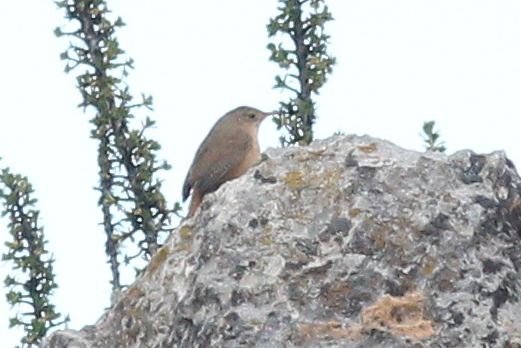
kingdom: Animalia
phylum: Chordata
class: Aves
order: Passeriformes
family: Troglodytidae
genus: Troglodytes
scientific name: Troglodytes aedon
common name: House wren
